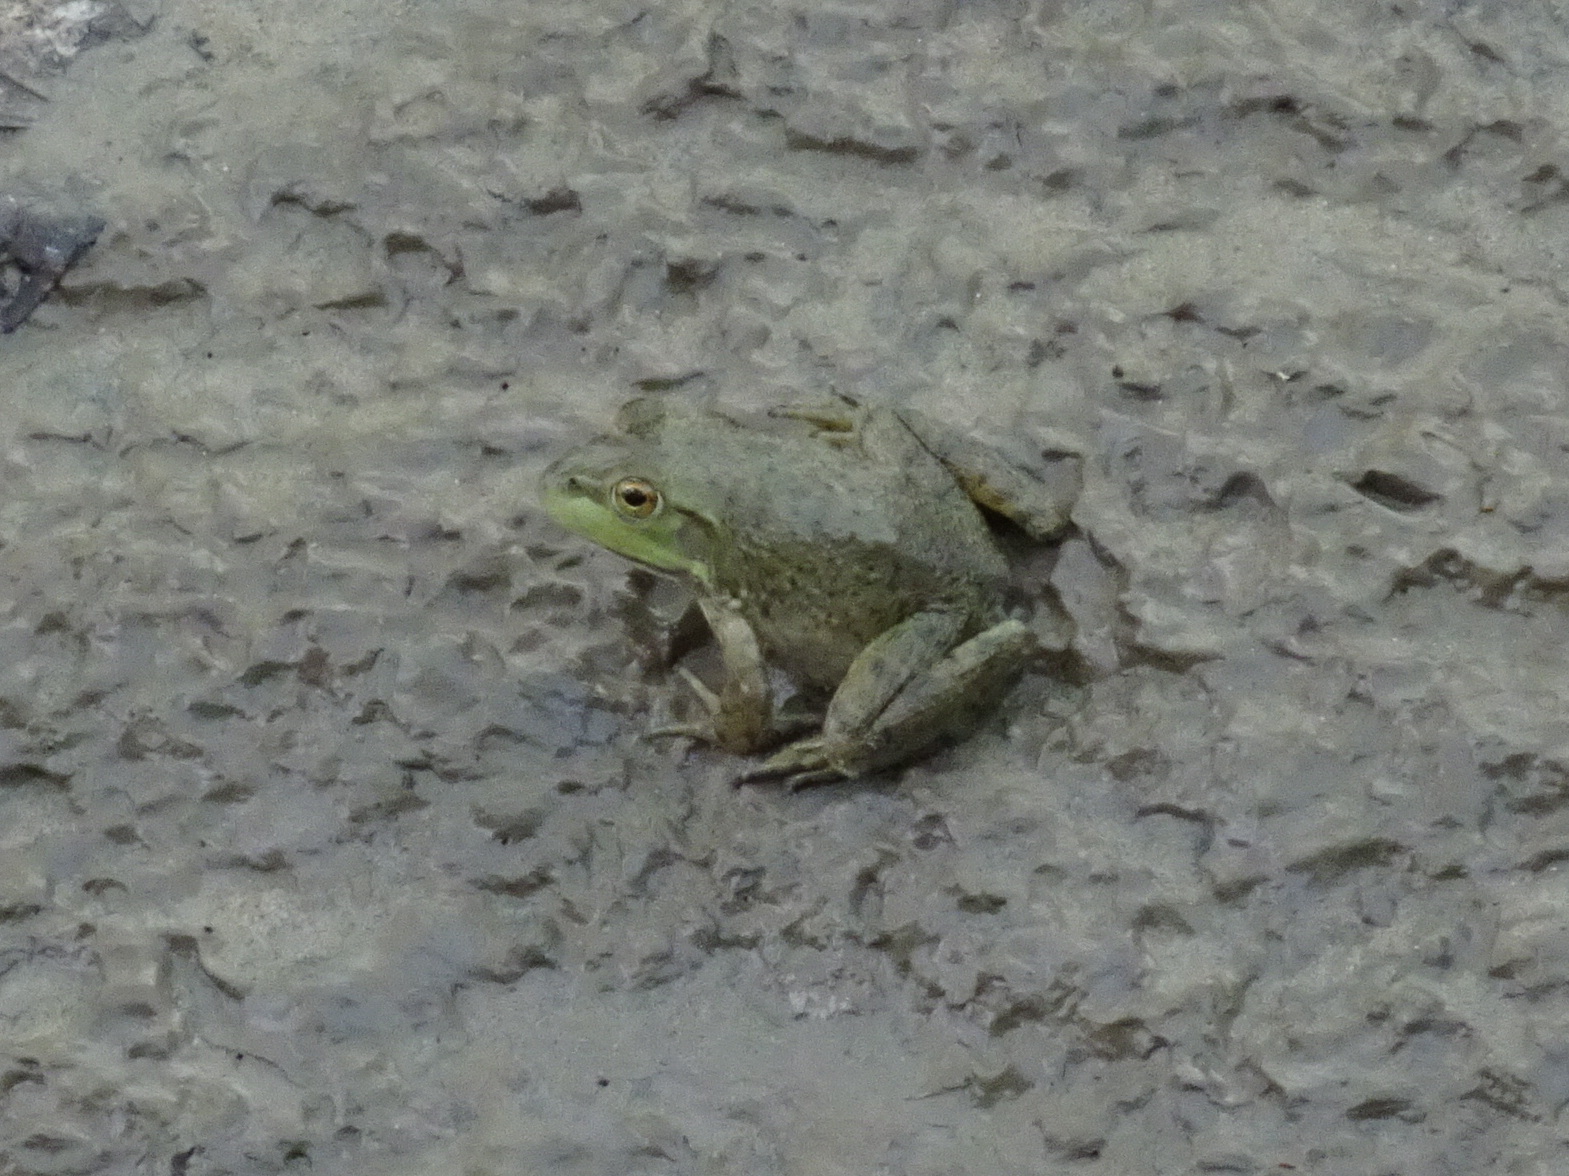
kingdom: Animalia
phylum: Chordata
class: Amphibia
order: Anura
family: Ranidae
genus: Lithobates
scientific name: Lithobates catesbeianus
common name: American bullfrog
